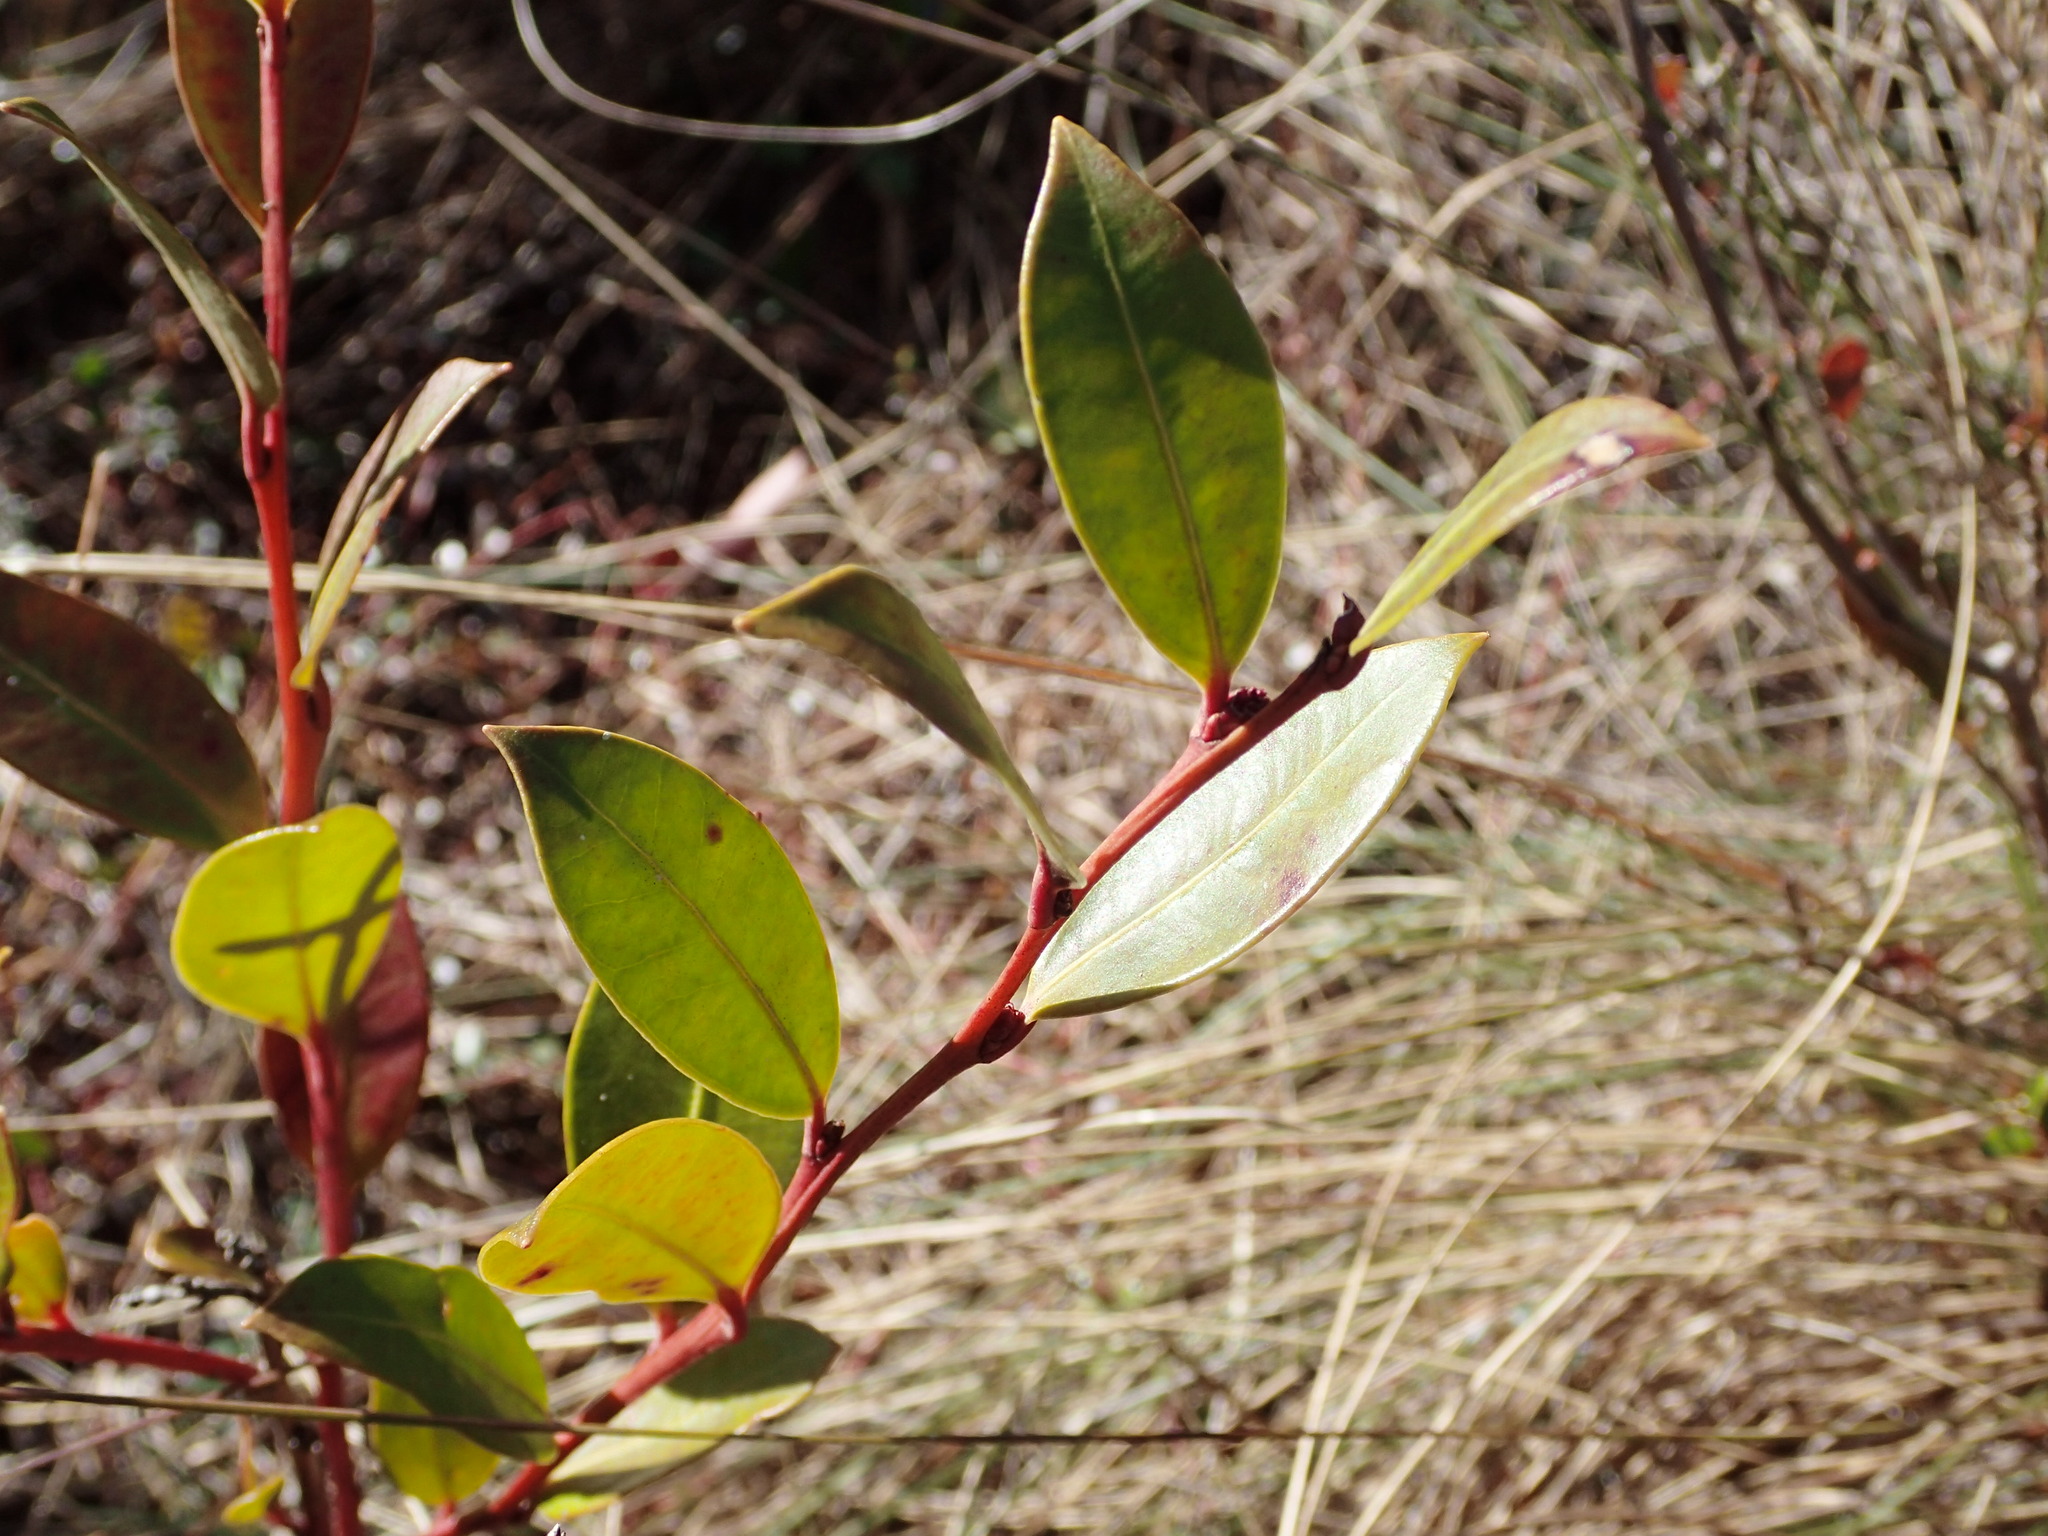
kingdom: Plantae
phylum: Tracheophyta
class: Magnoliopsida
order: Ericales
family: Ericaceae
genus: Lyonia
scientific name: Lyonia lucida
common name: Fetterbush
